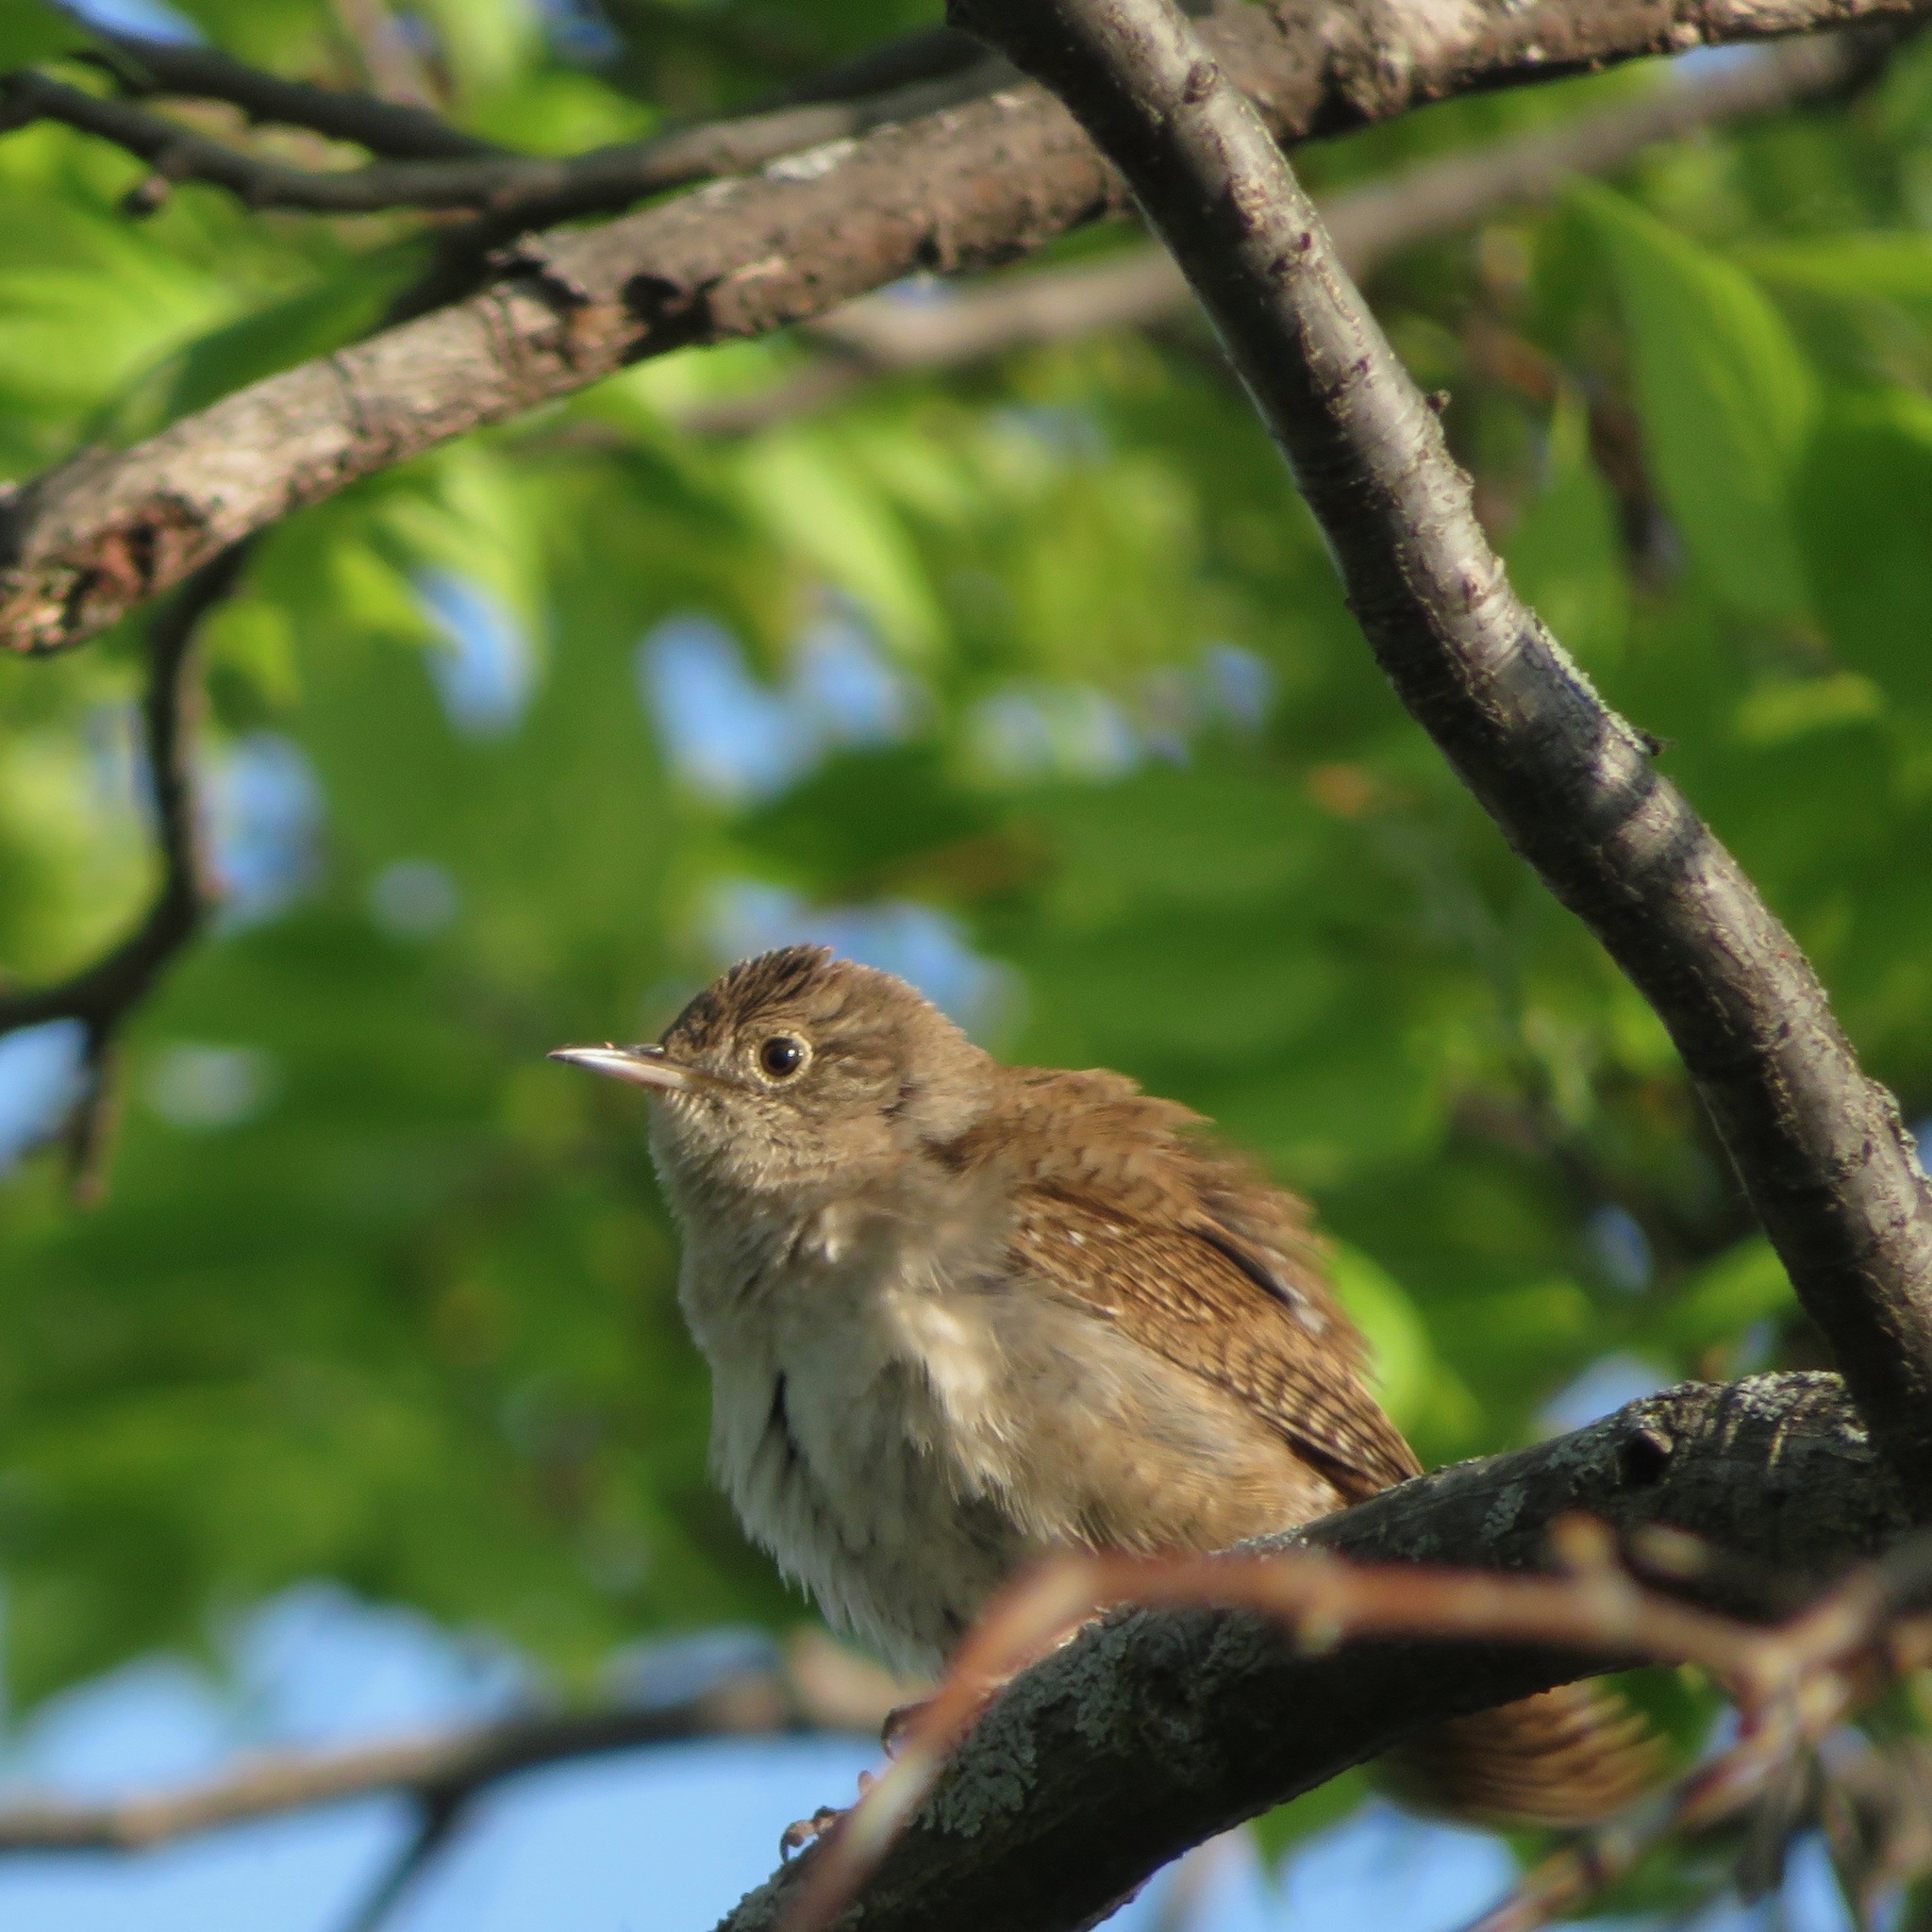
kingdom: Animalia
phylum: Chordata
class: Aves
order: Passeriformes
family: Troglodytidae
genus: Troglodytes
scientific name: Troglodytes aedon
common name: House wren
